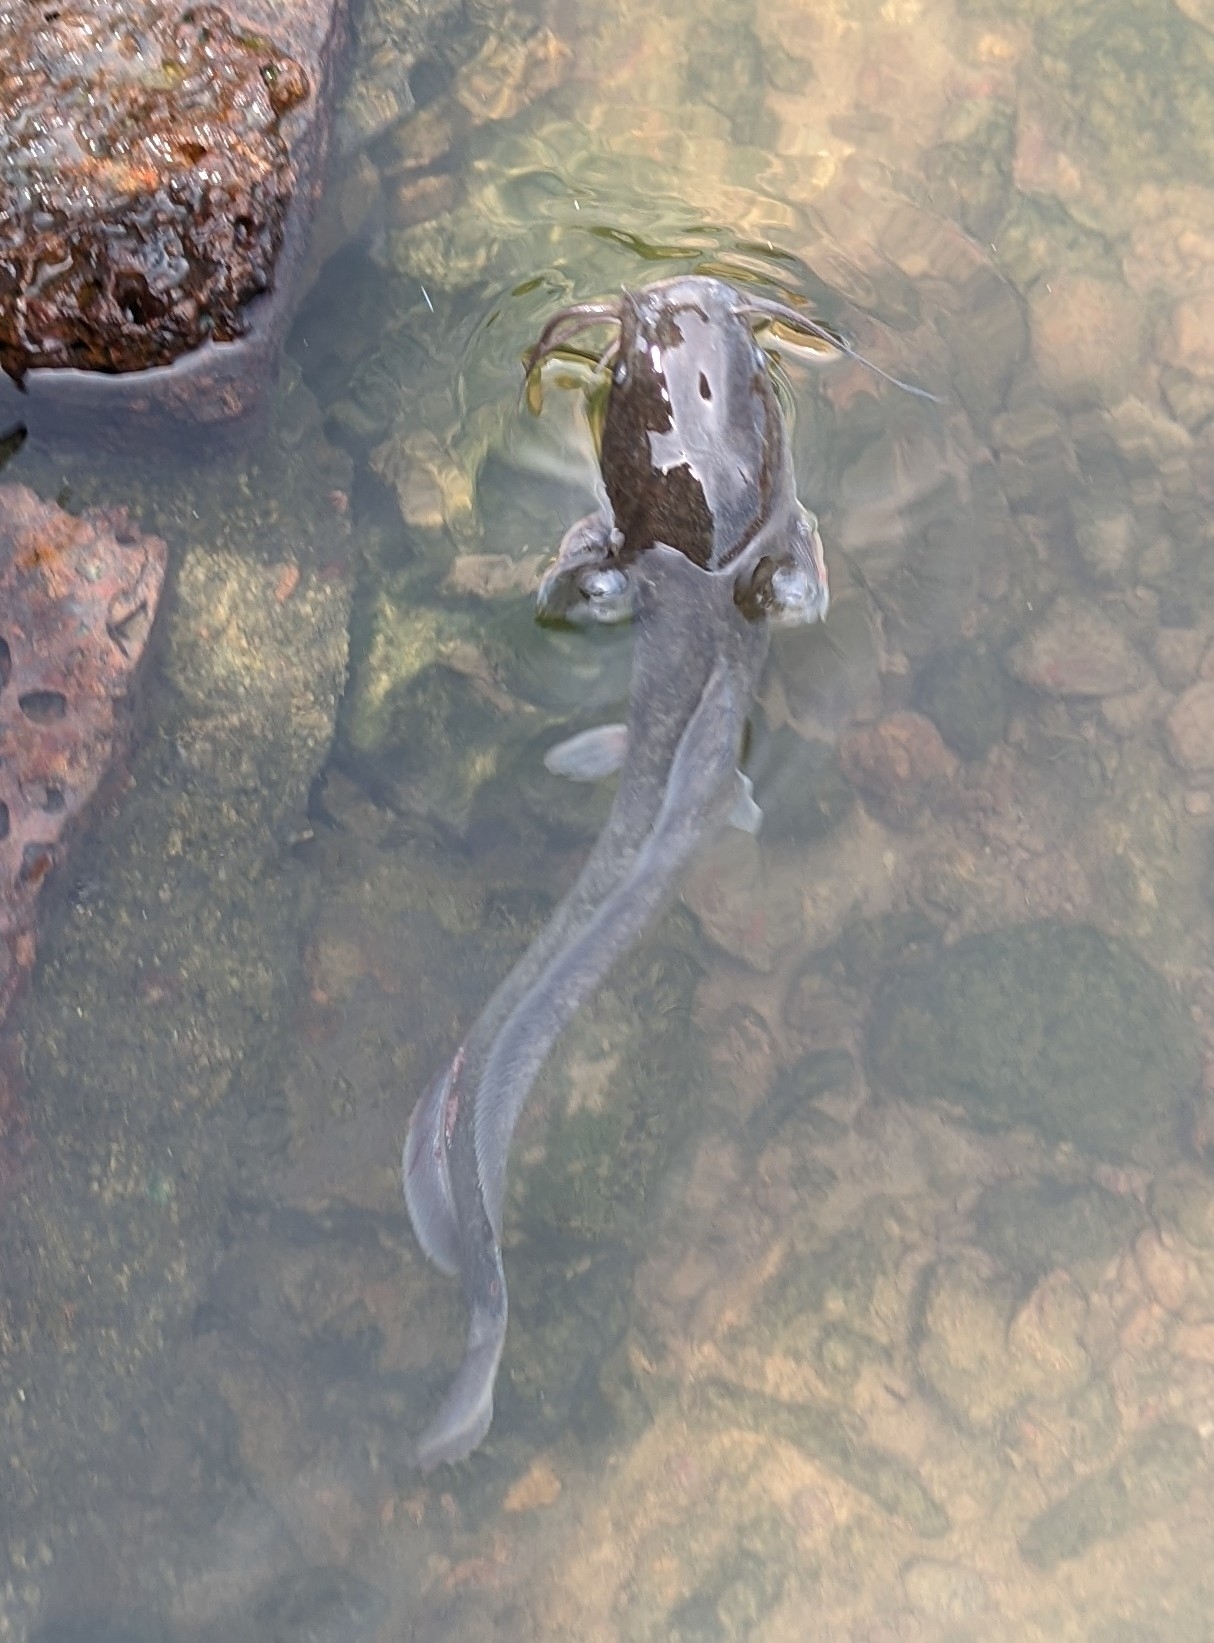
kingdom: Animalia
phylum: Chordata
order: Siluriformes
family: Clariidae
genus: Clarias
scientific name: Clarias gariepinus
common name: African catfish
